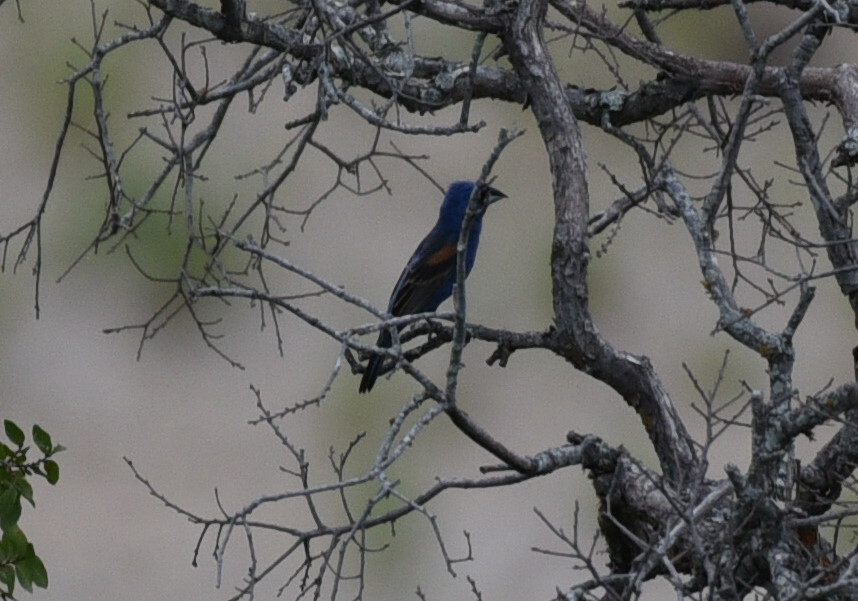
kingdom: Animalia
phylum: Chordata
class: Aves
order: Passeriformes
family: Cardinalidae
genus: Passerina
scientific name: Passerina caerulea
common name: Blue grosbeak
